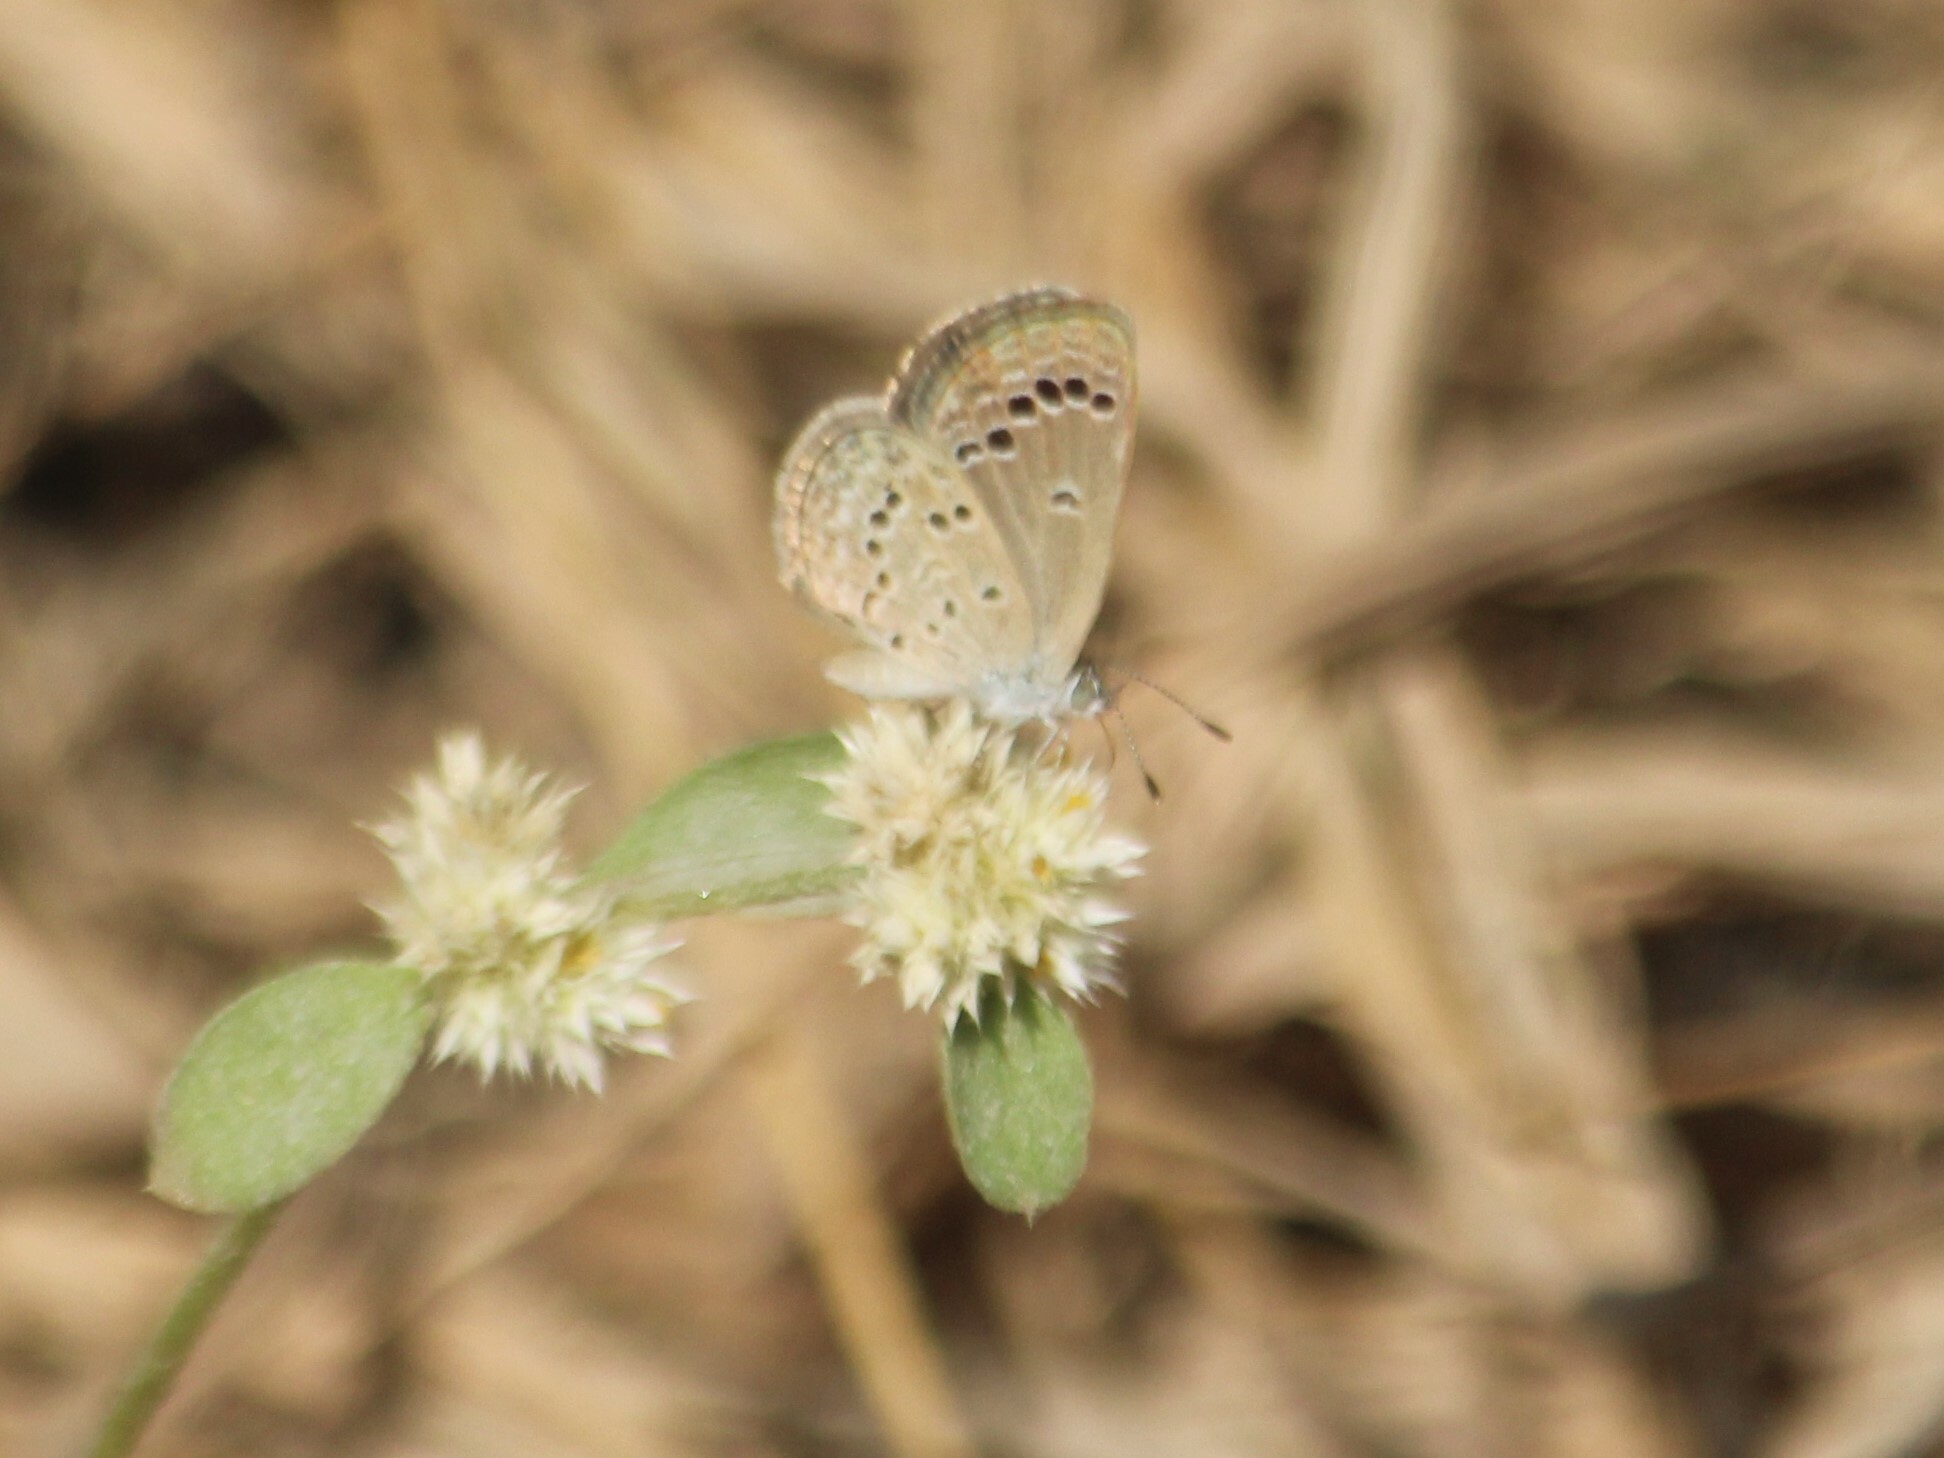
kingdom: Animalia
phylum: Arthropoda
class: Insecta
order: Lepidoptera
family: Lycaenidae
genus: Zizina
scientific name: Zizina otis
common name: Lesser grass blue
